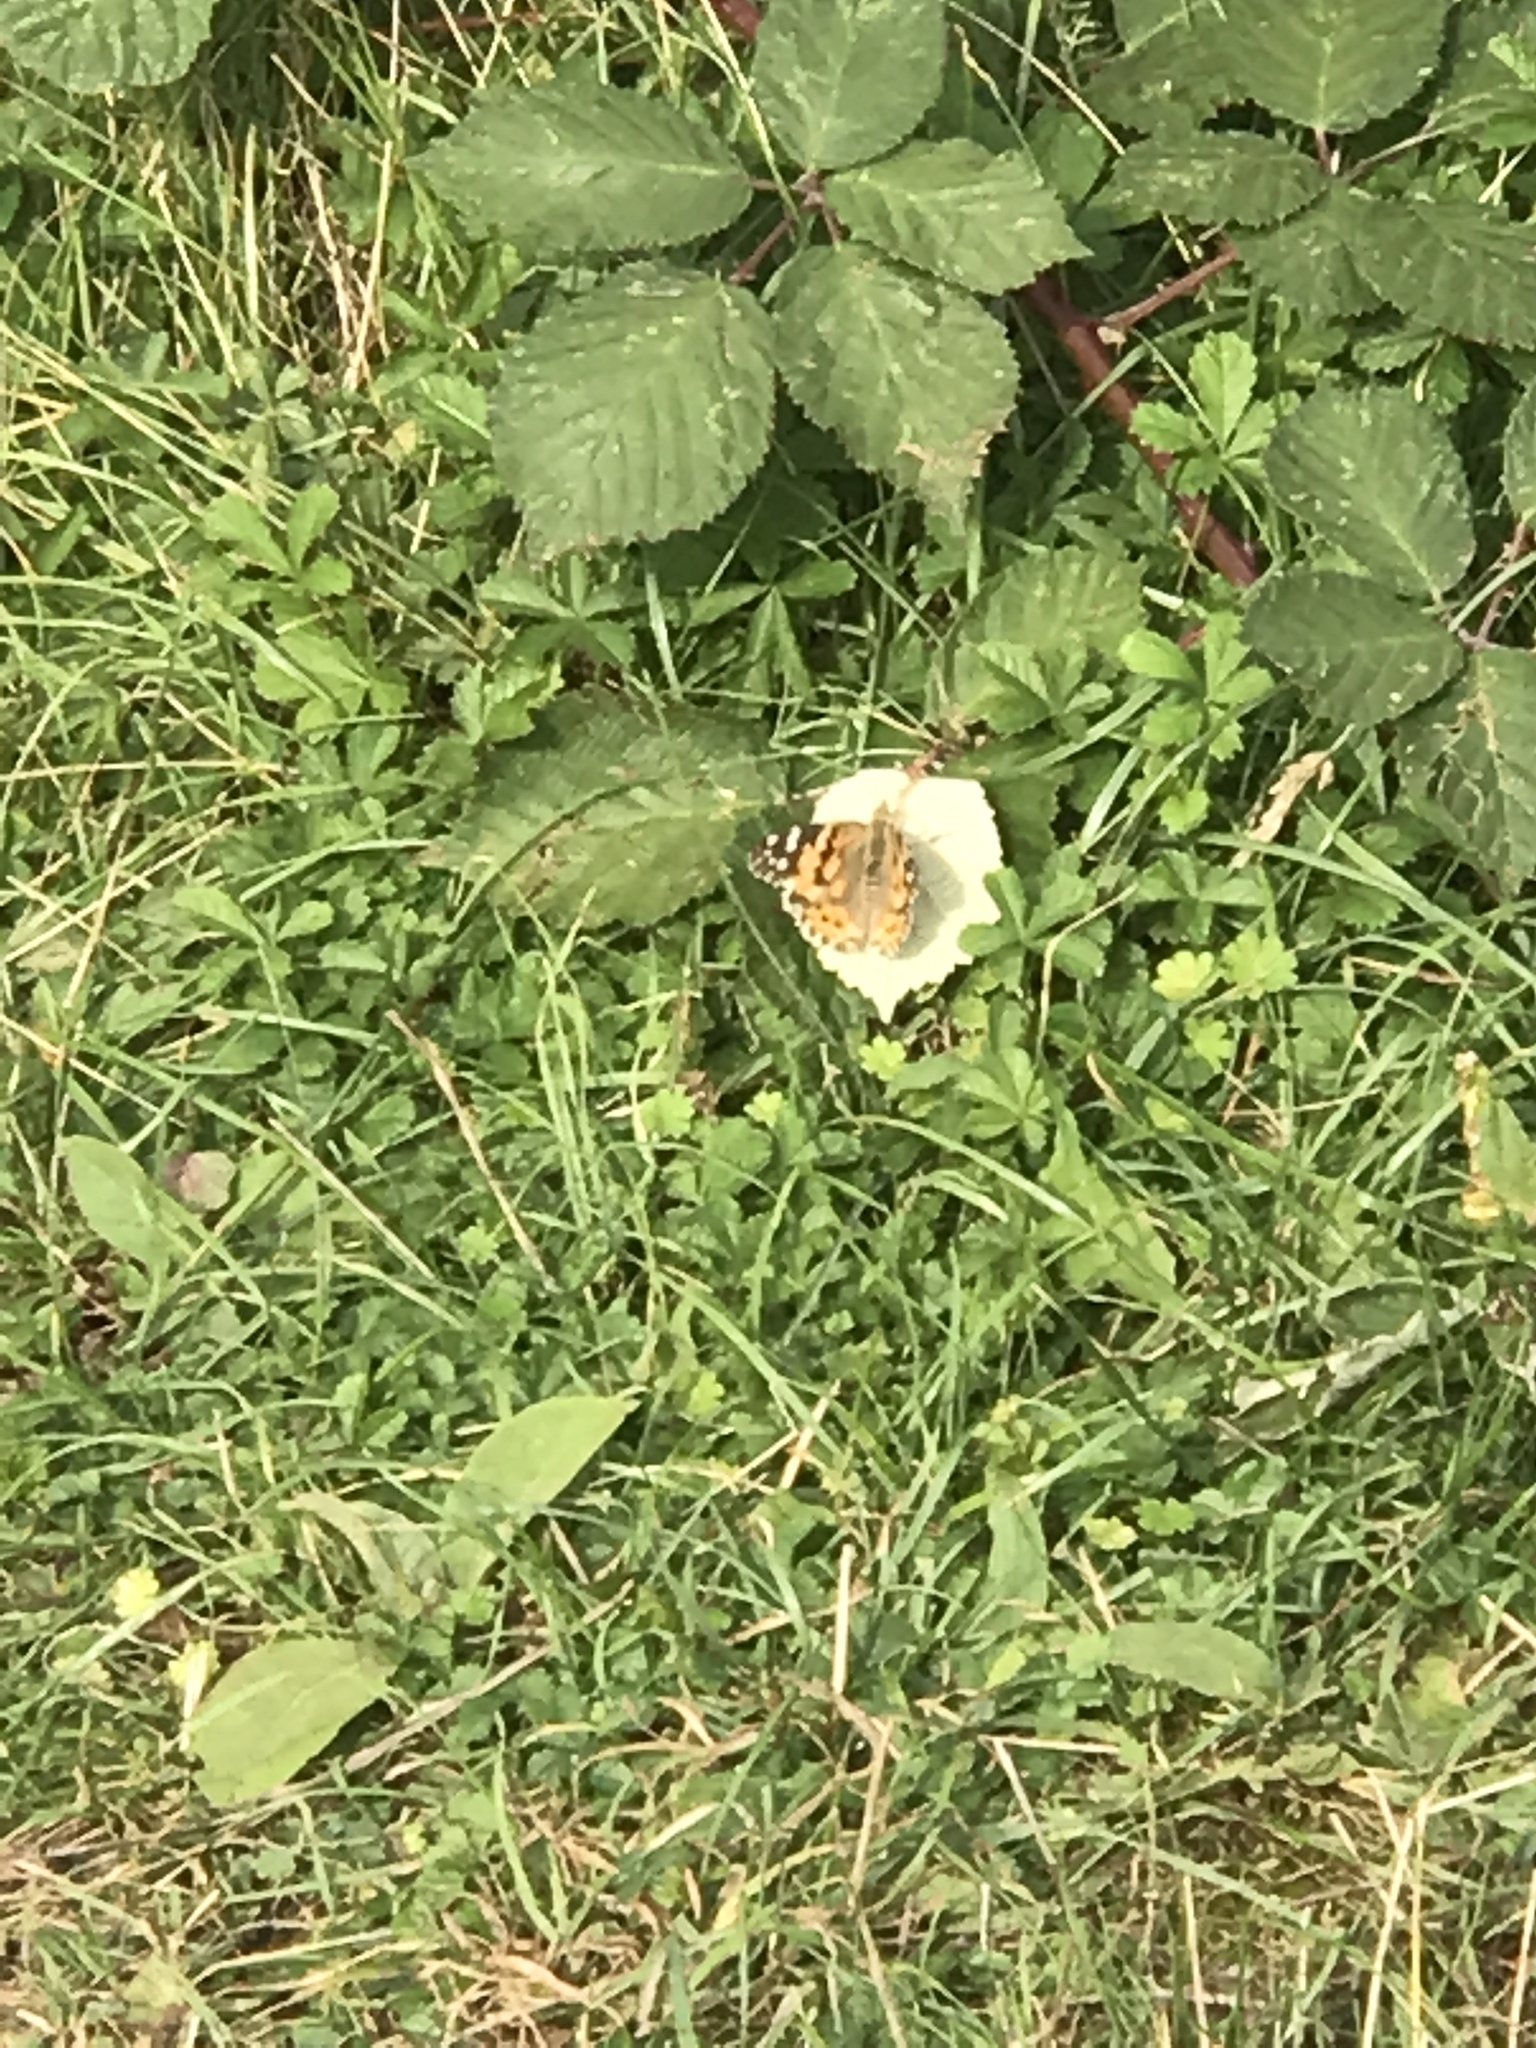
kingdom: Animalia
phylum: Arthropoda
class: Insecta
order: Lepidoptera
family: Nymphalidae
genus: Vanessa
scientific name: Vanessa cardui
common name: Painted lady
